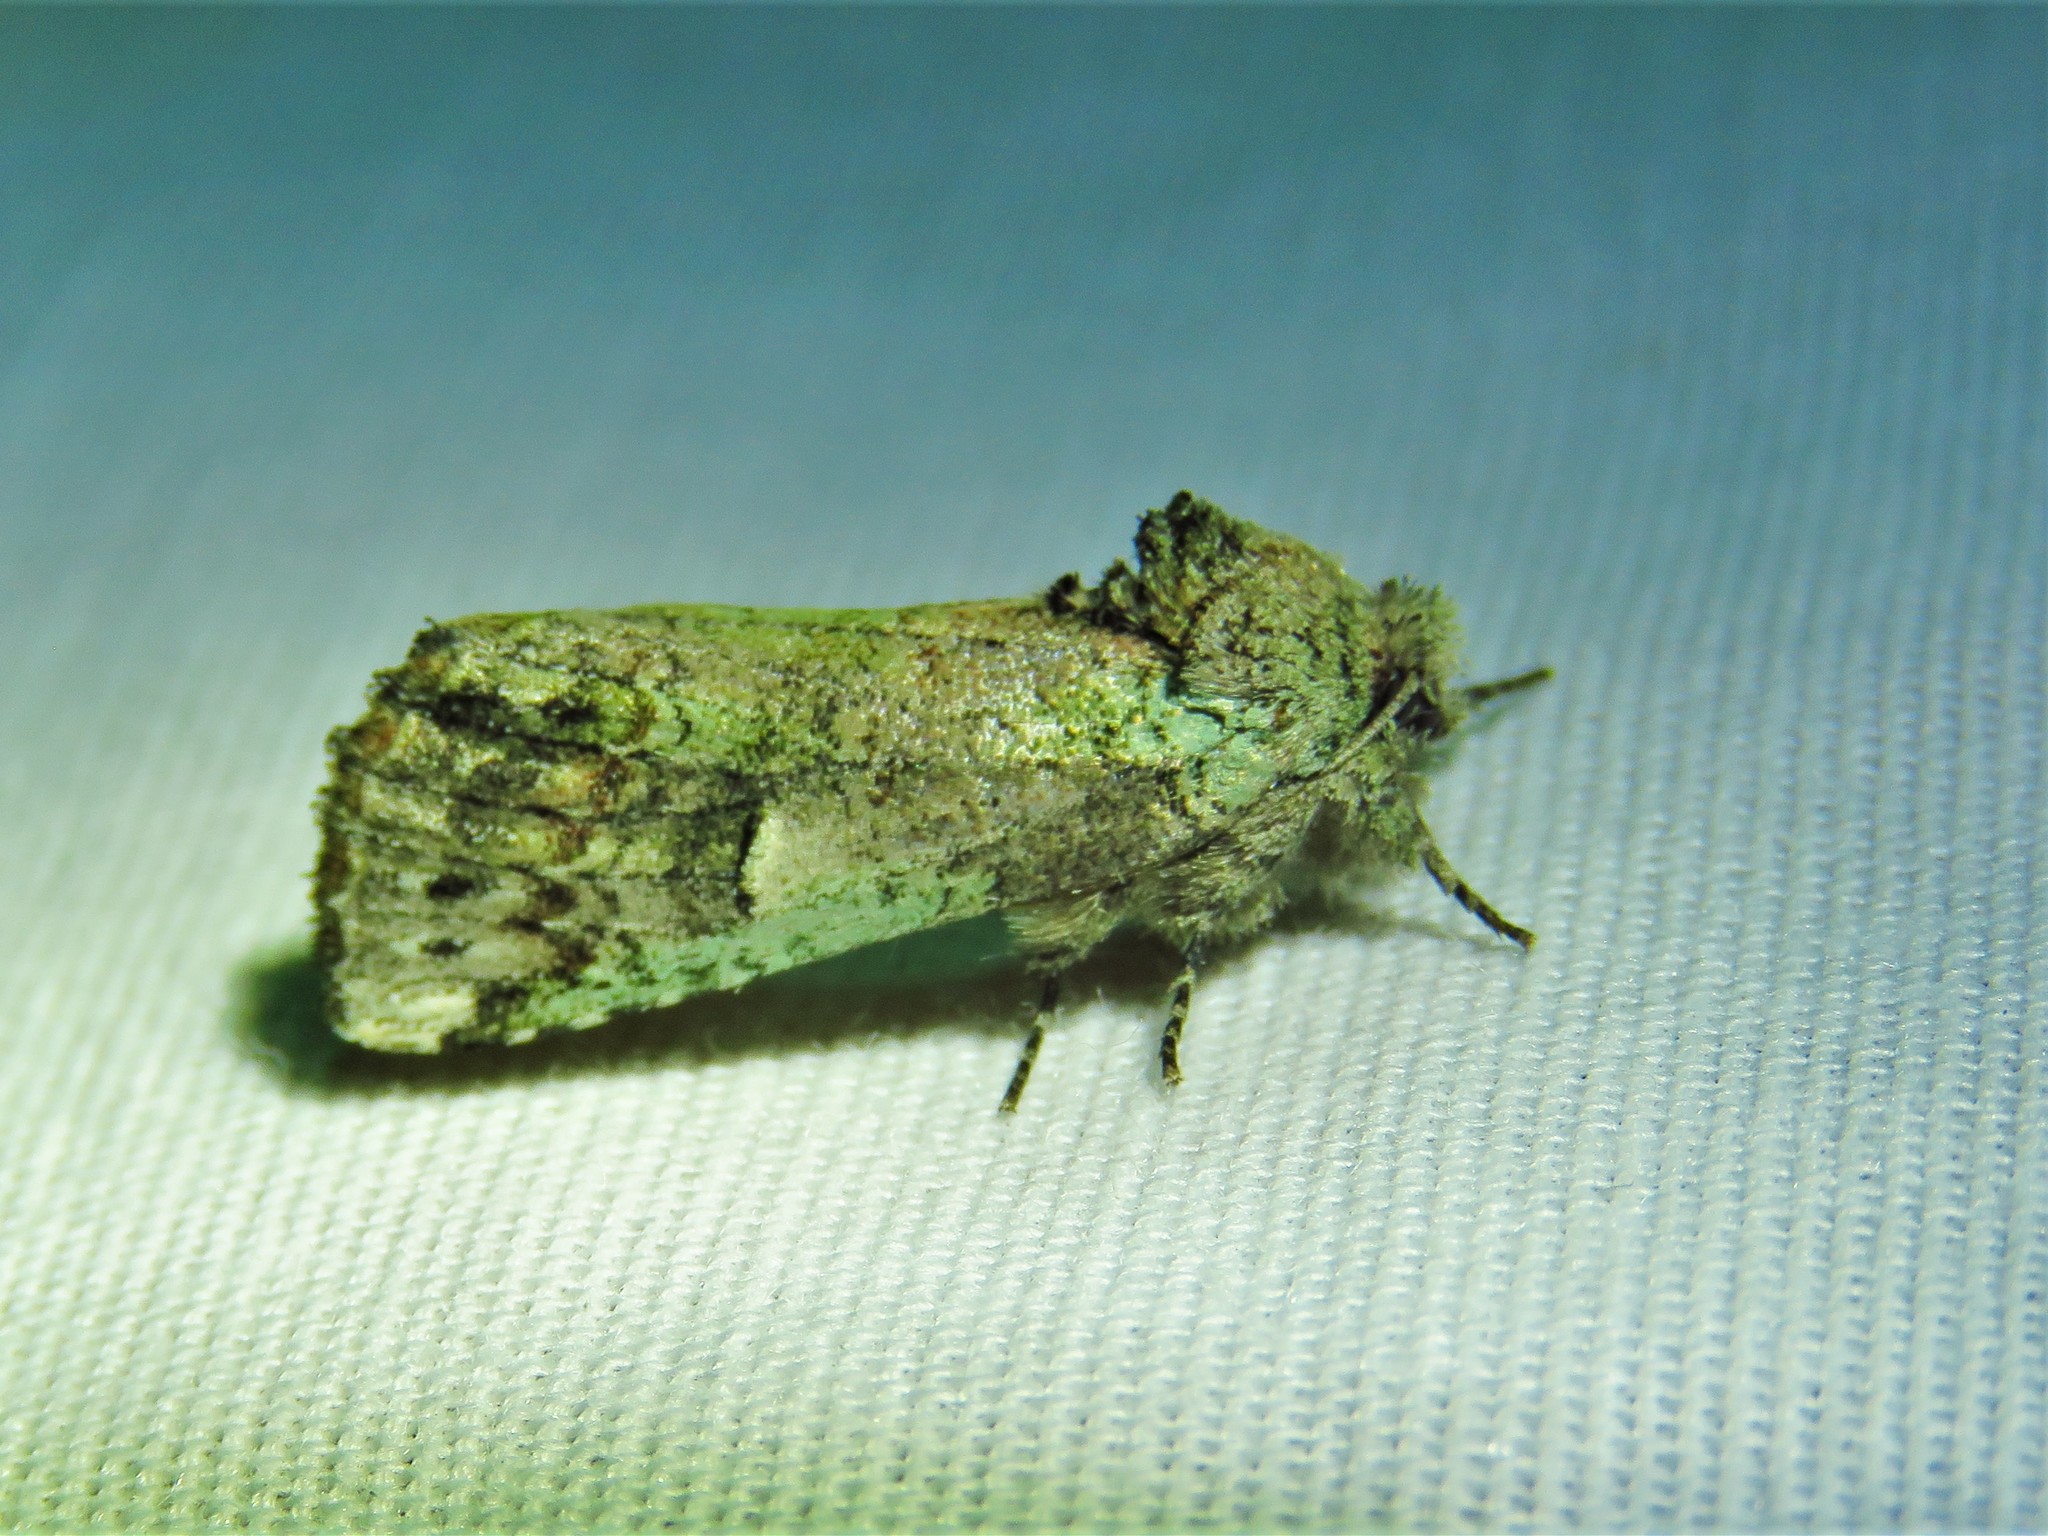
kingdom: Animalia
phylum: Arthropoda
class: Insecta
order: Lepidoptera
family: Notodontidae
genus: Schizura
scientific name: Schizura
